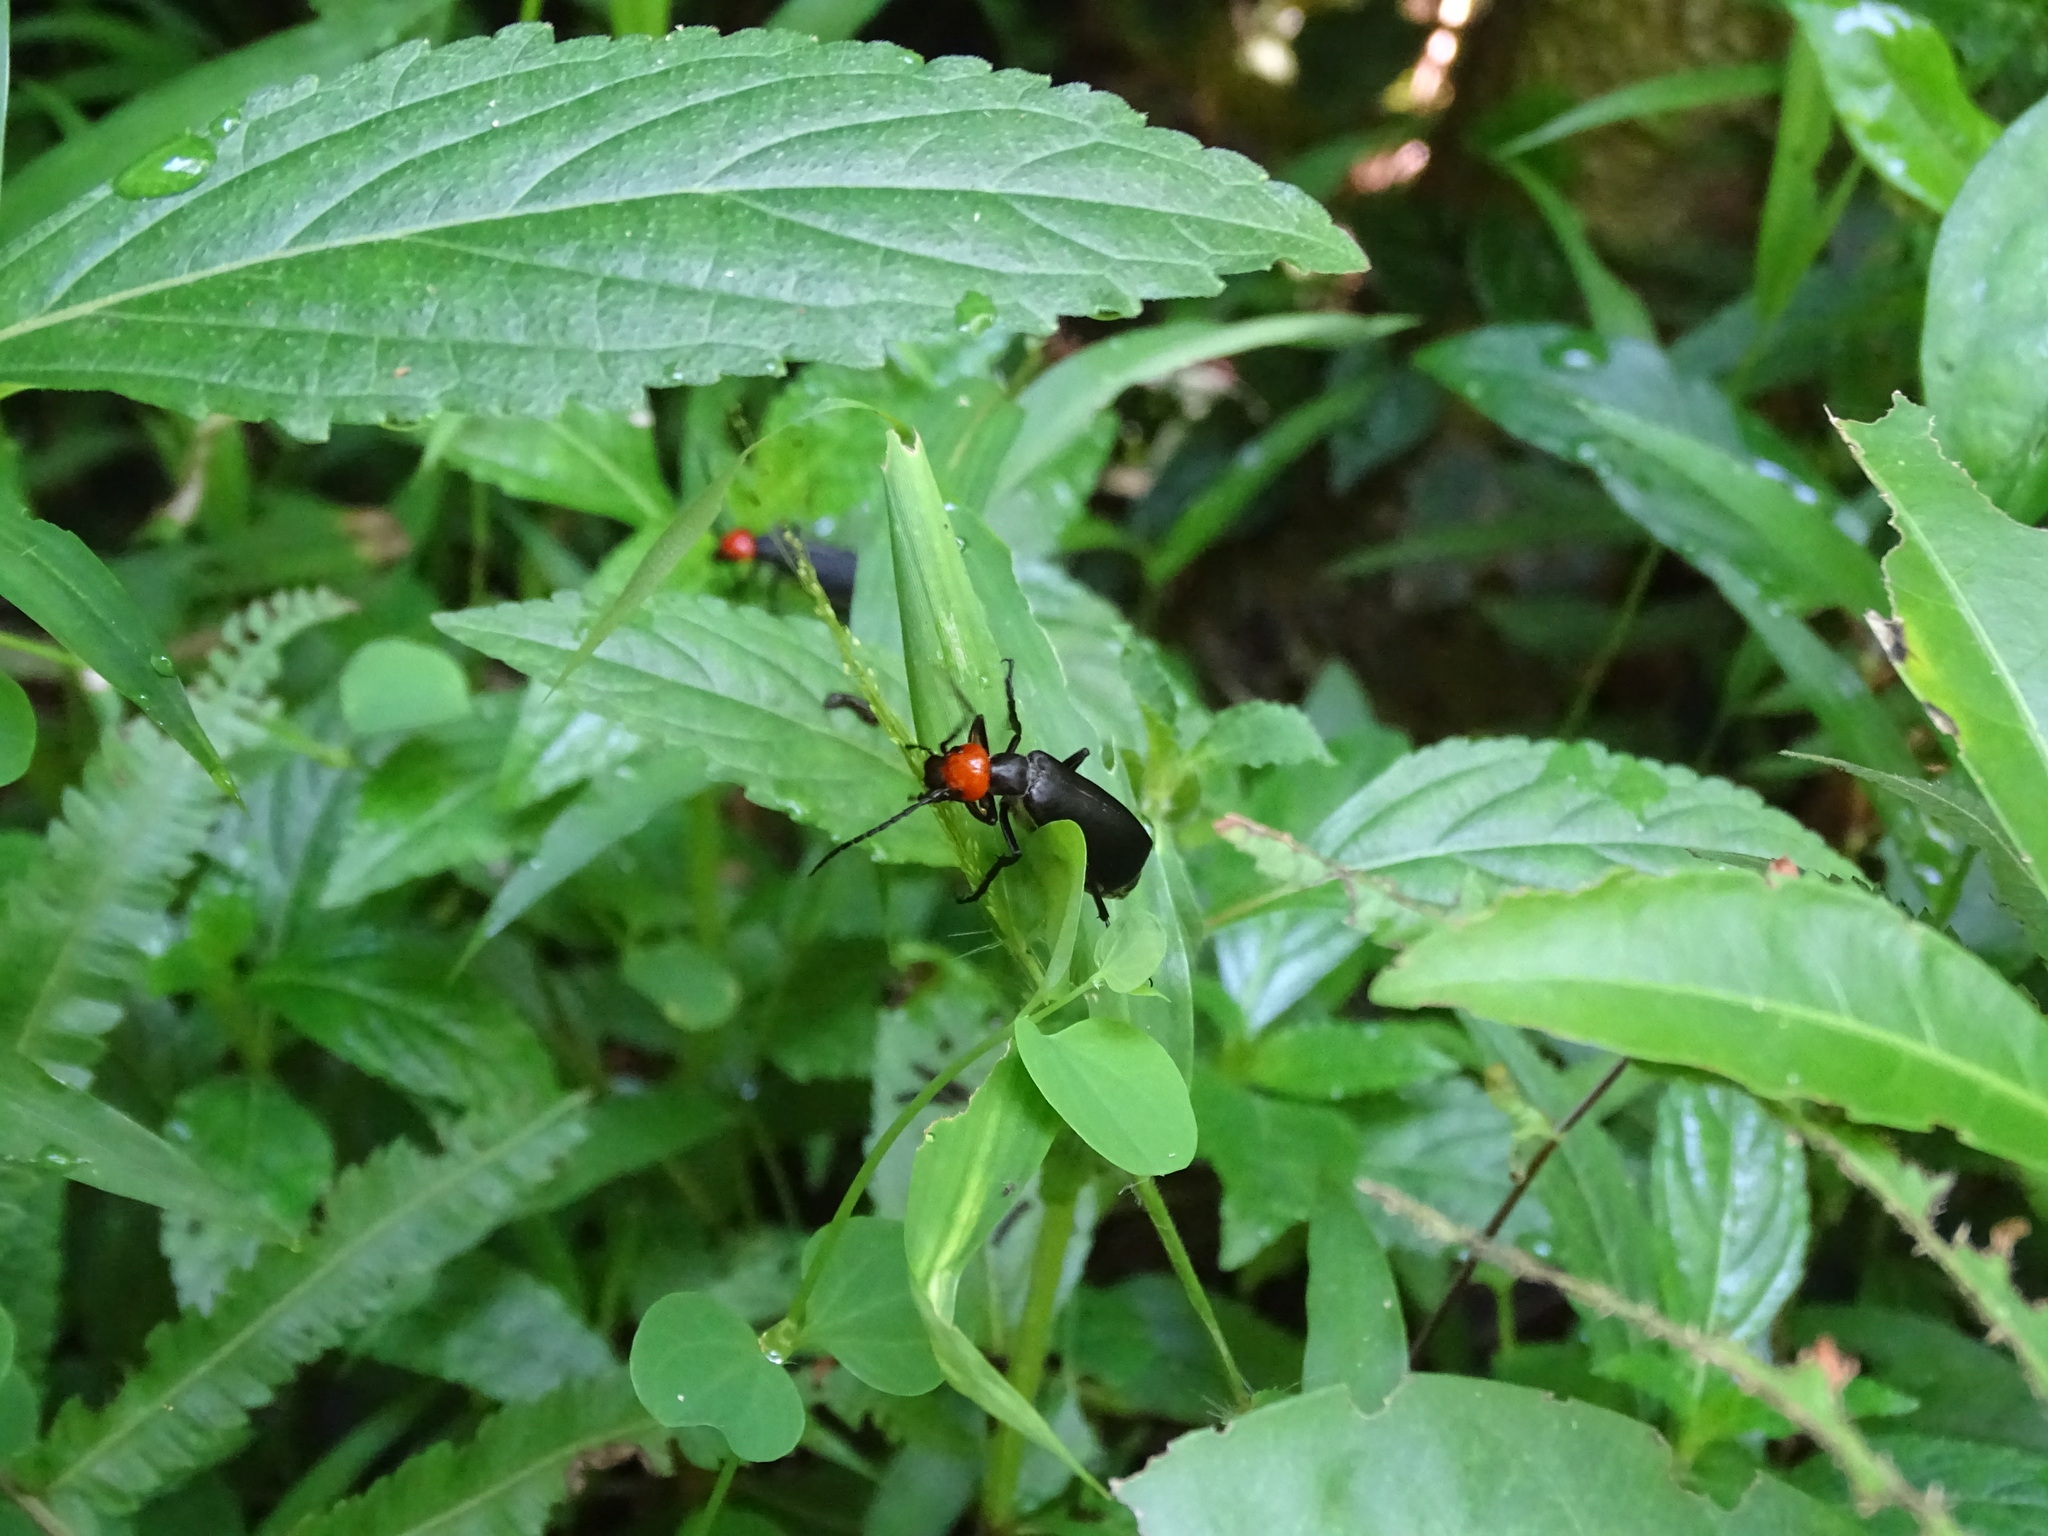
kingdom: Animalia
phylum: Arthropoda
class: Insecta
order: Coleoptera
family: Meloidae
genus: Epicauta
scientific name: Epicauta hirticornis
